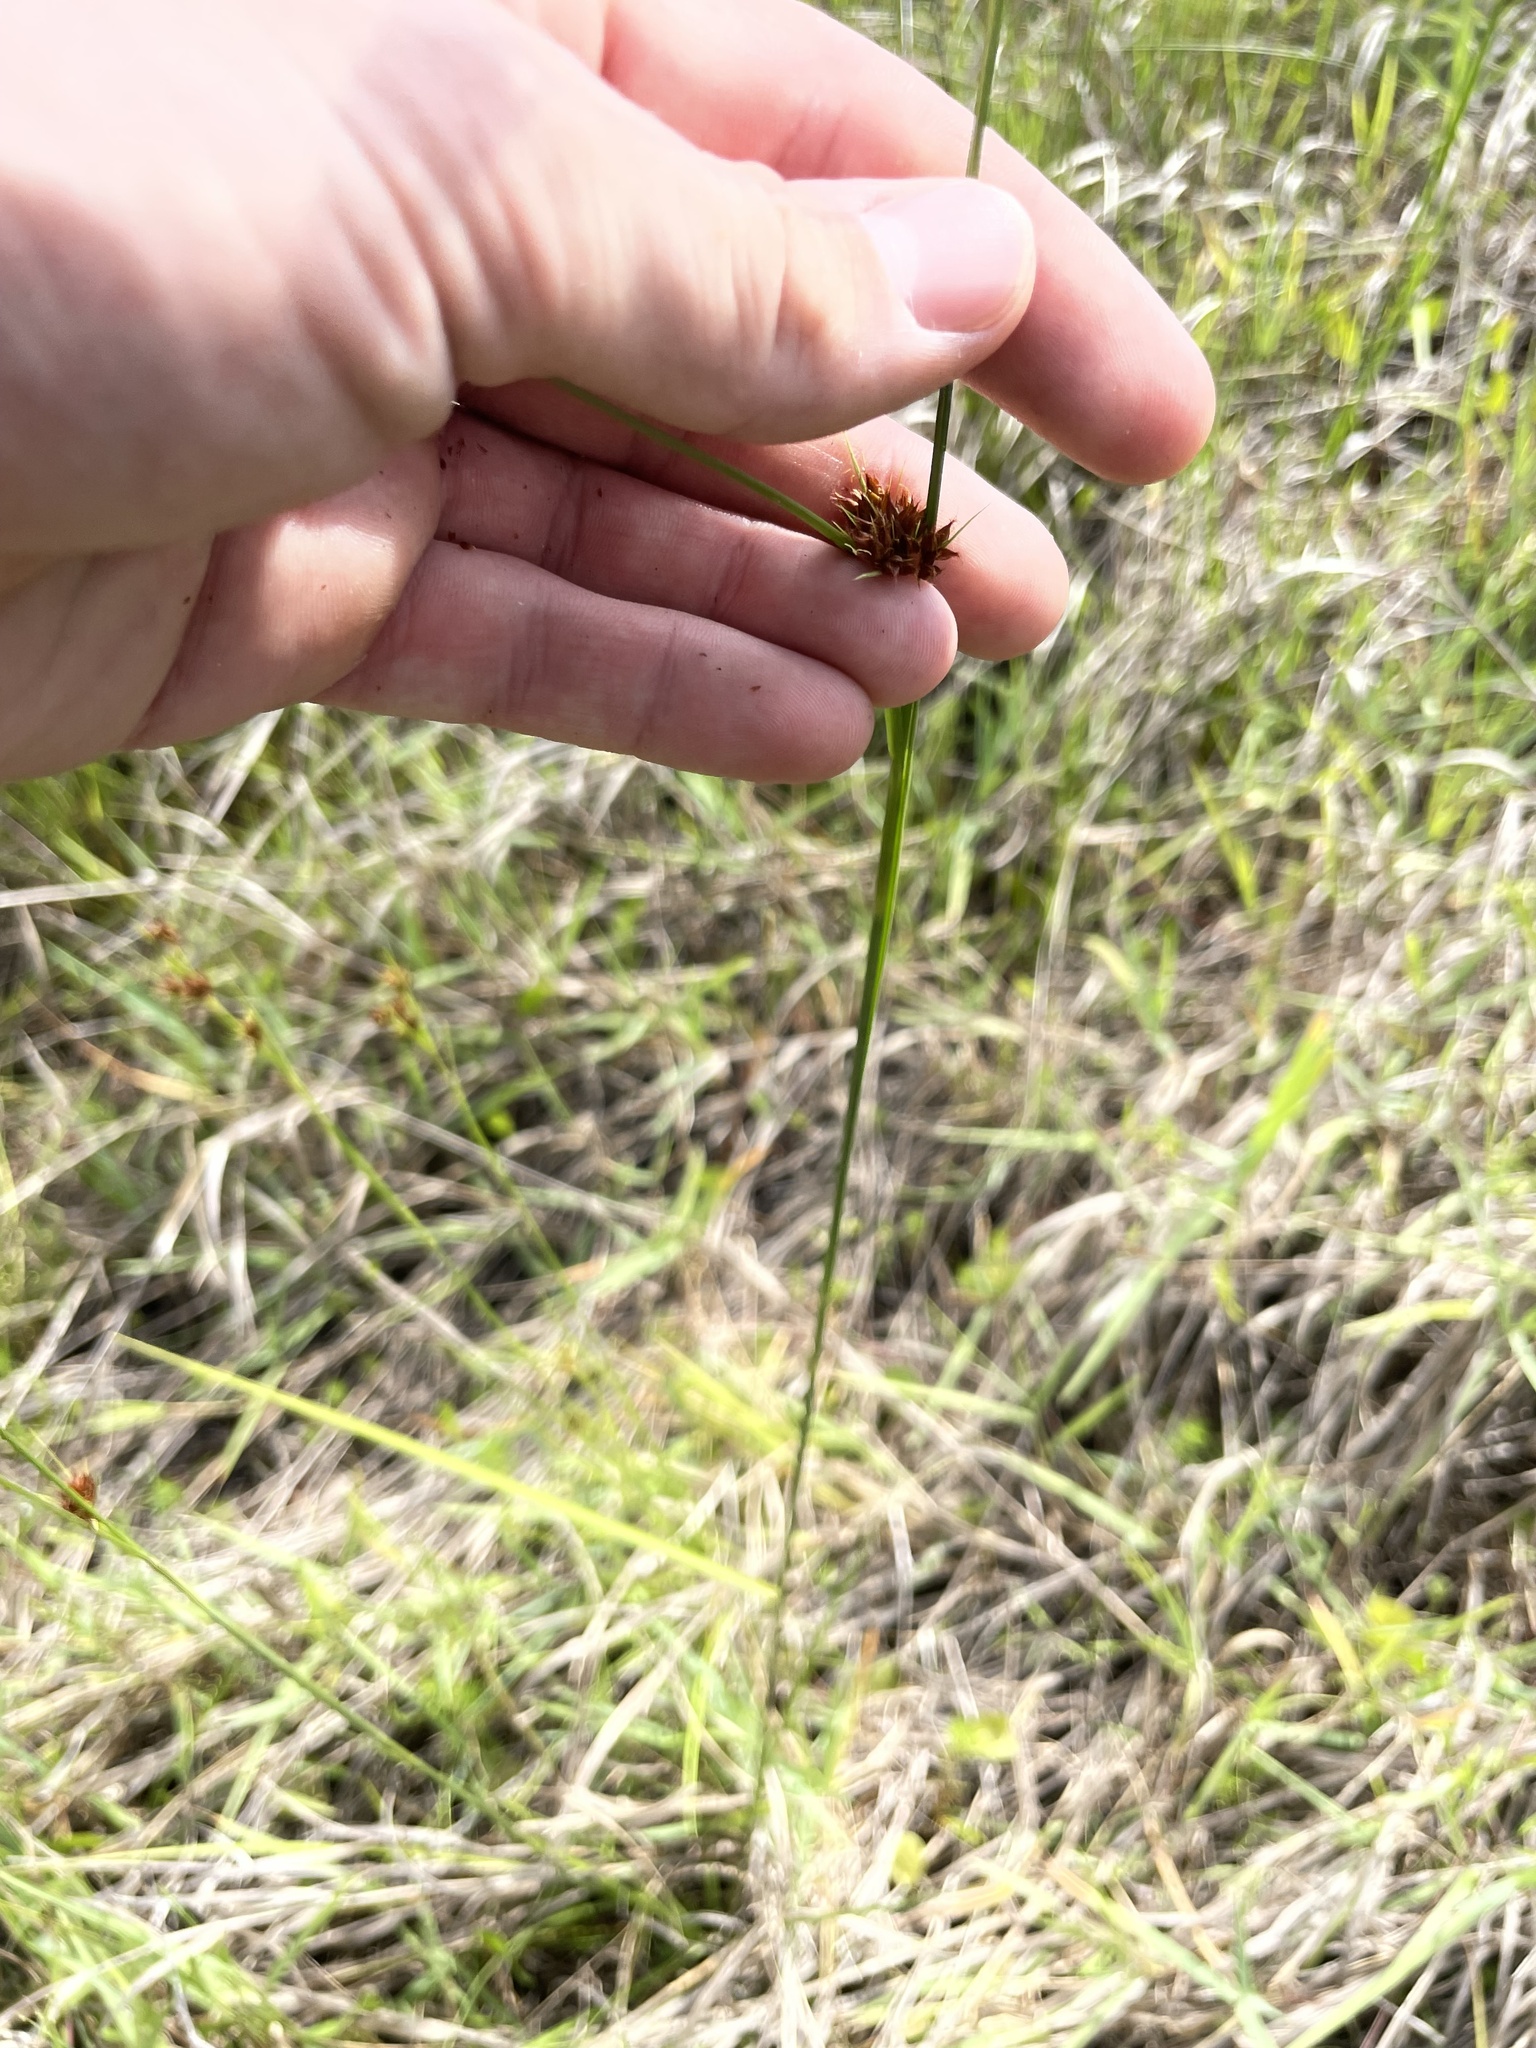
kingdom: Plantae
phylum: Tracheophyta
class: Liliopsida
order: Poales
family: Cyperaceae
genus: Rhynchospora
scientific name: Rhynchospora fascicularis
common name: Fascicled beak sedge
